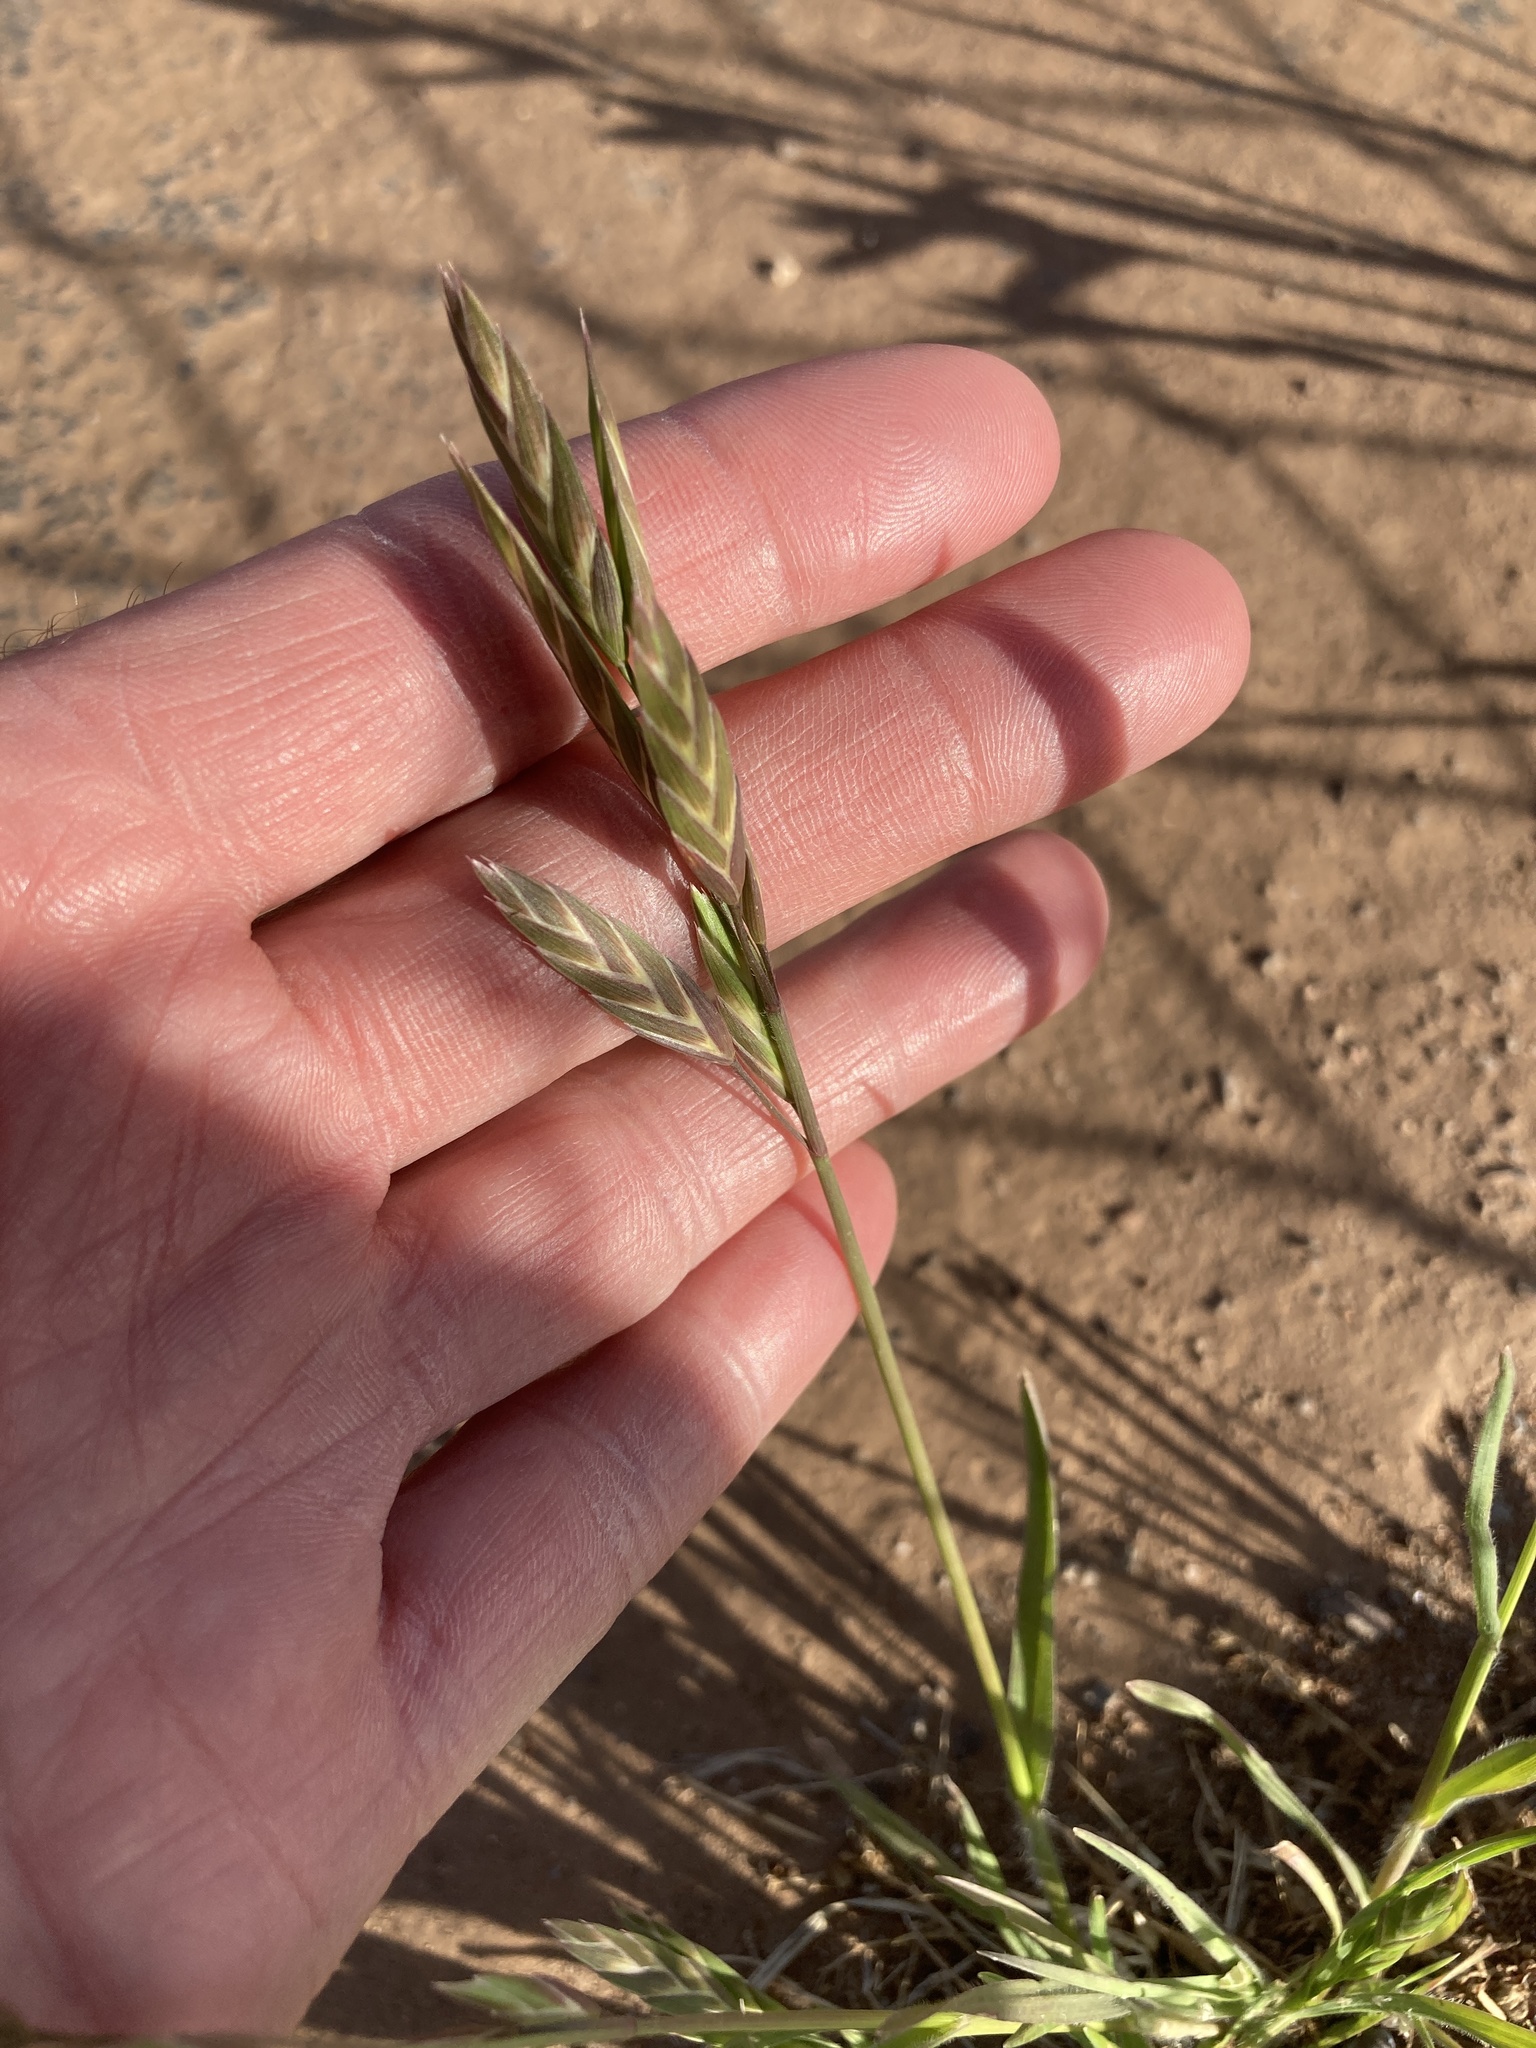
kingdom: Plantae
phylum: Tracheophyta
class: Liliopsida
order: Poales
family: Poaceae
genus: Bromus
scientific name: Bromus catharticus
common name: Rescuegrass
